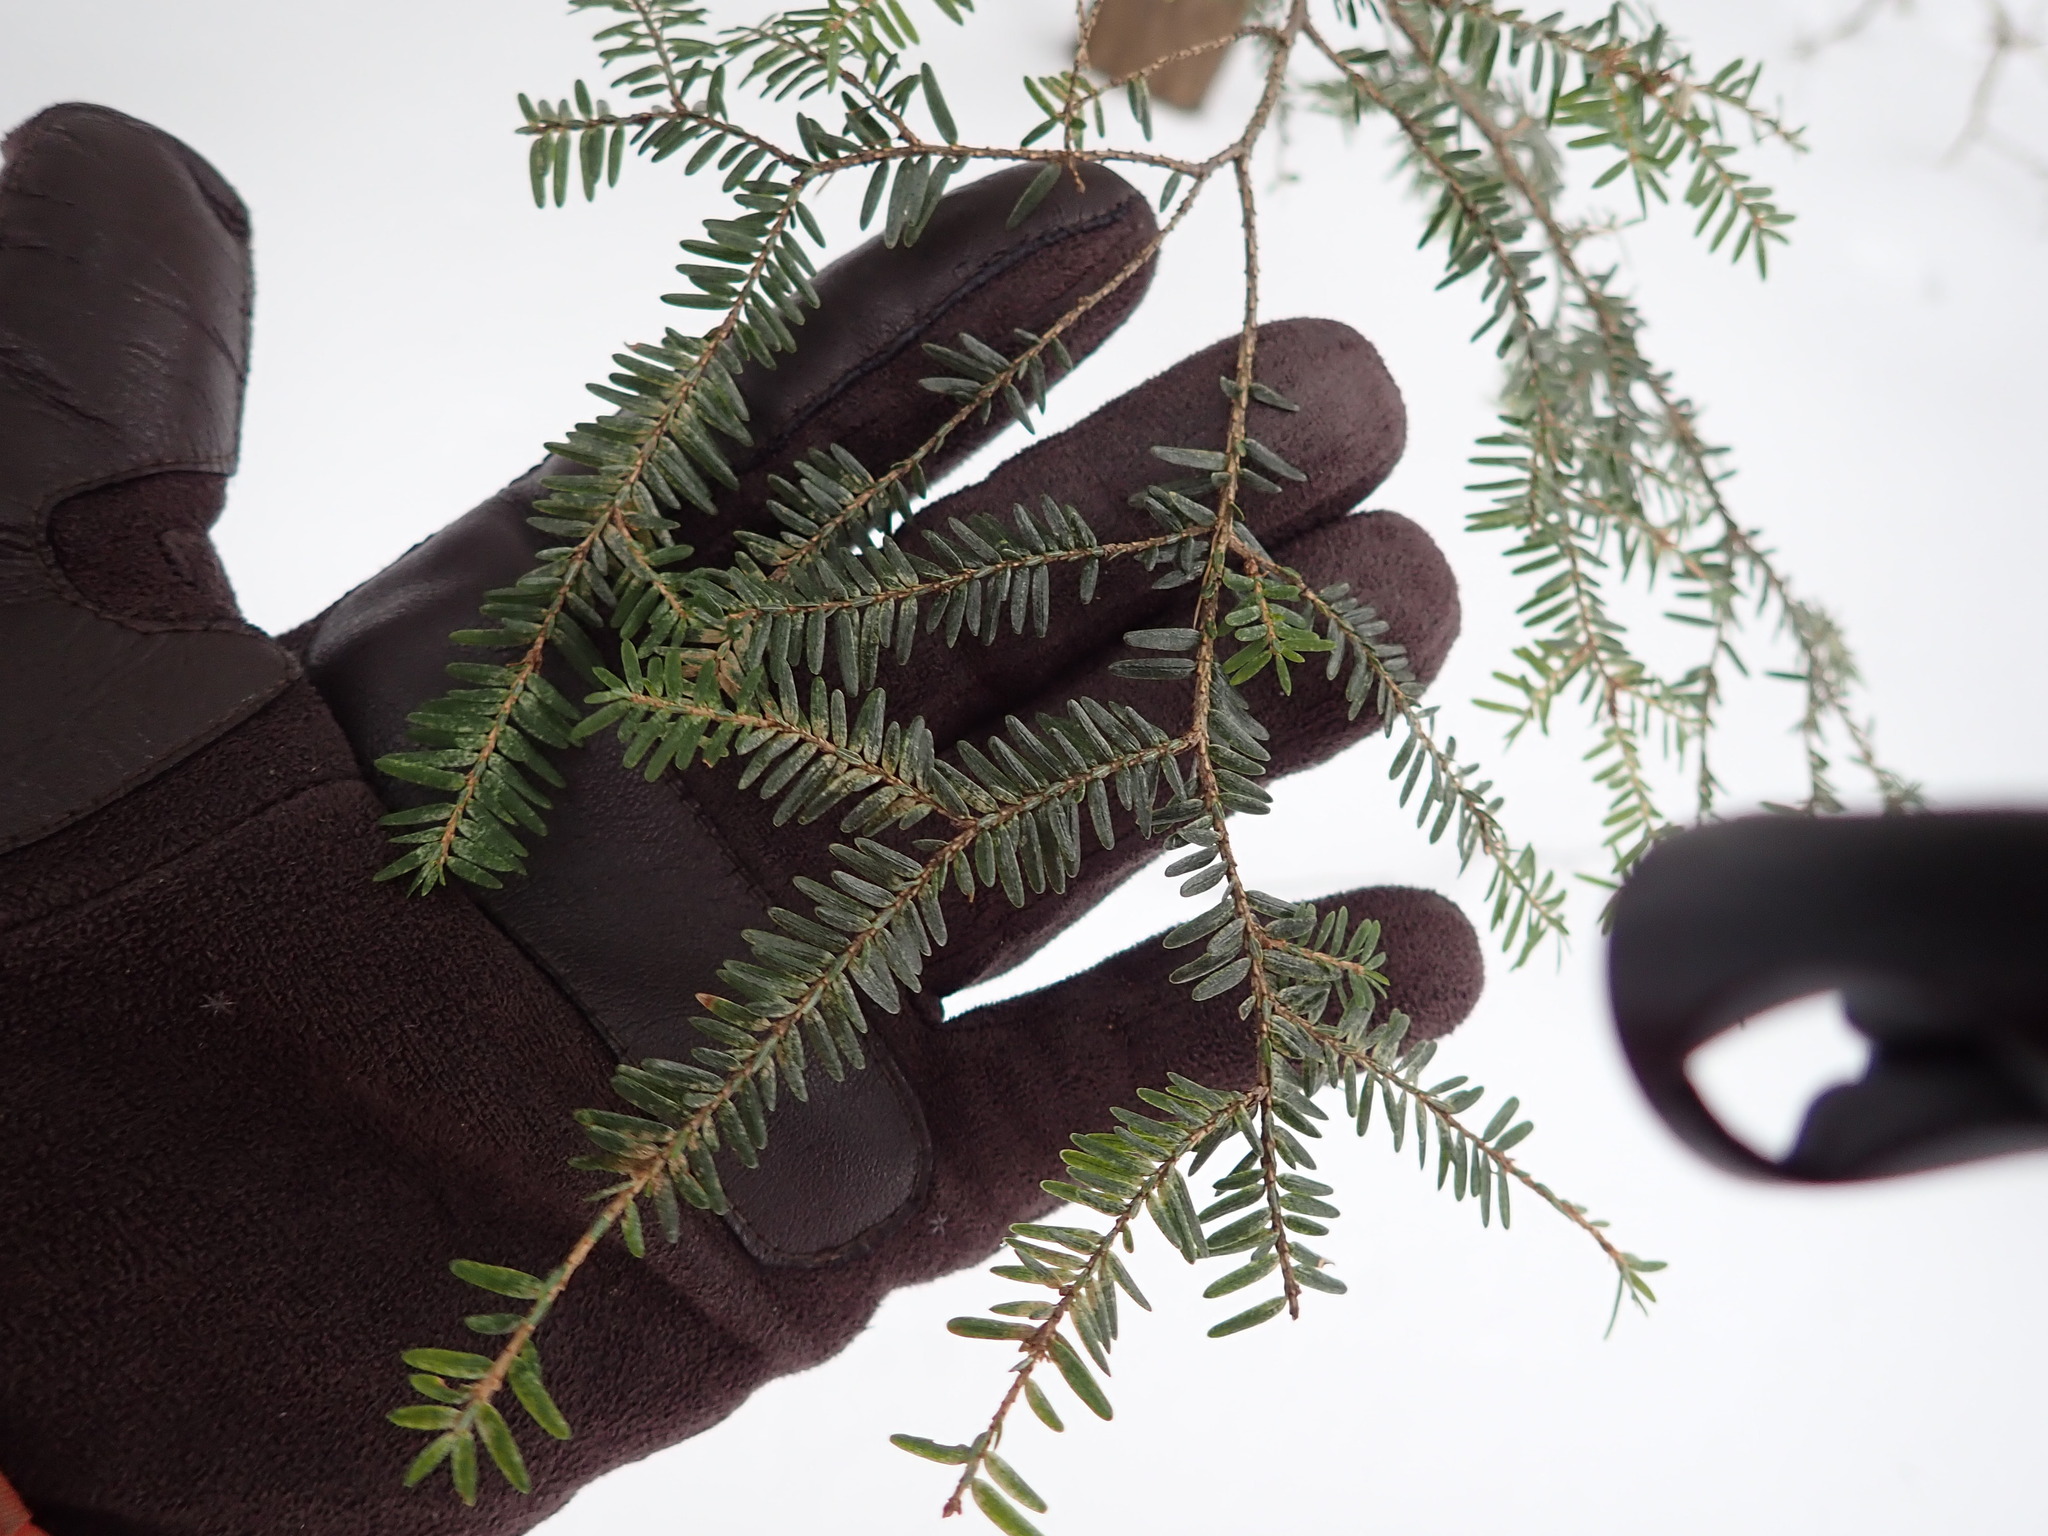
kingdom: Plantae
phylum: Tracheophyta
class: Pinopsida
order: Pinales
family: Pinaceae
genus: Tsuga
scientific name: Tsuga canadensis
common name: Eastern hemlock
